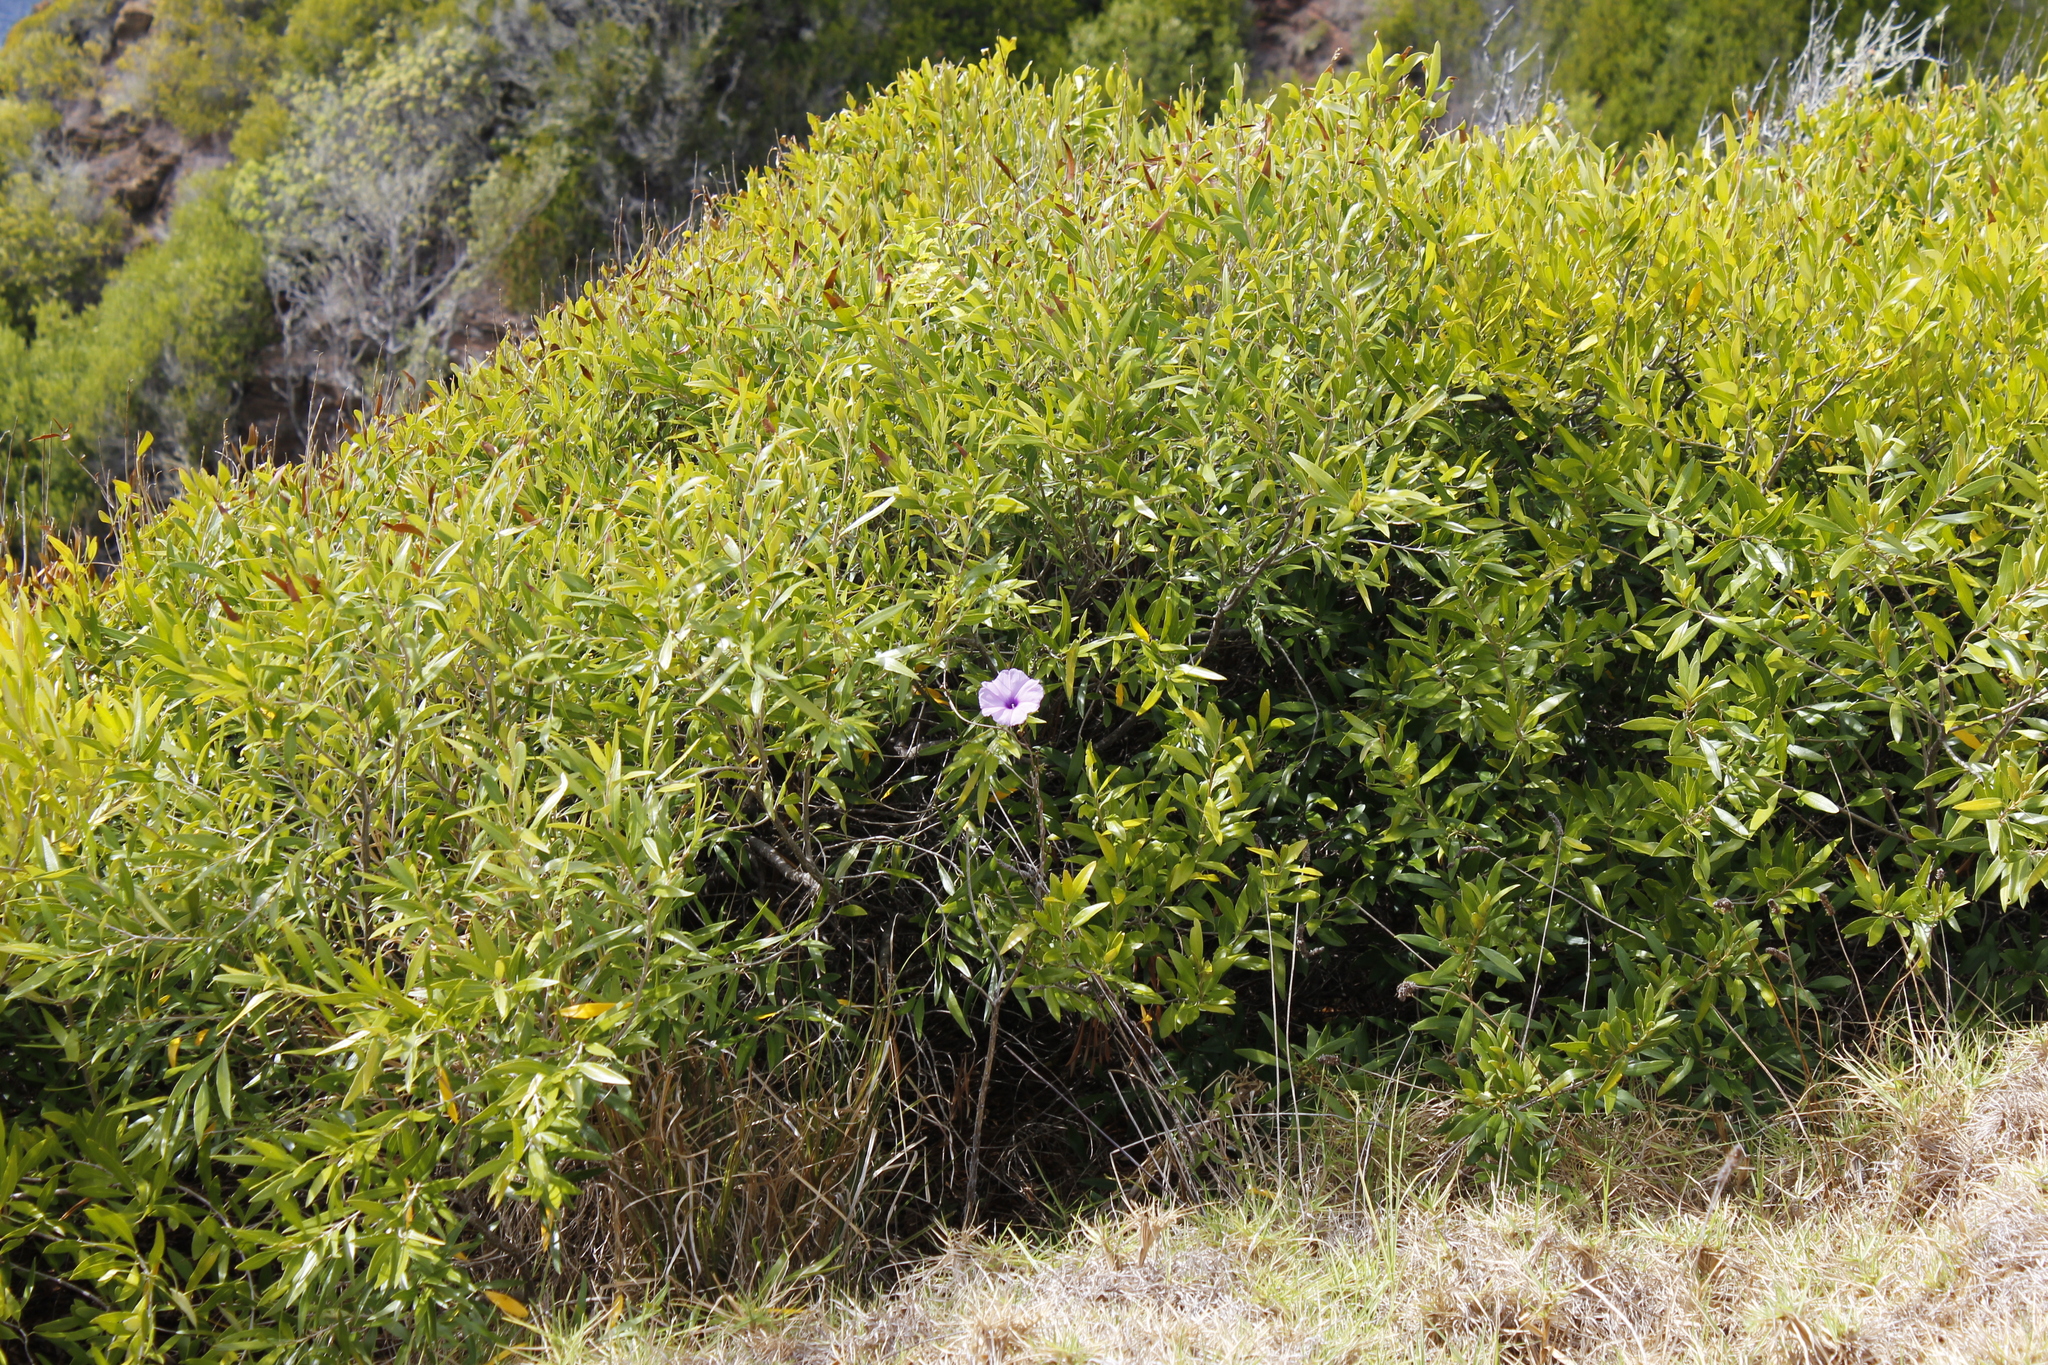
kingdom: Plantae
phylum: Tracheophyta
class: Magnoliopsida
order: Solanales
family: Convolvulaceae
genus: Ipomoea
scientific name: Ipomoea cairica
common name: Mile a minute vine
